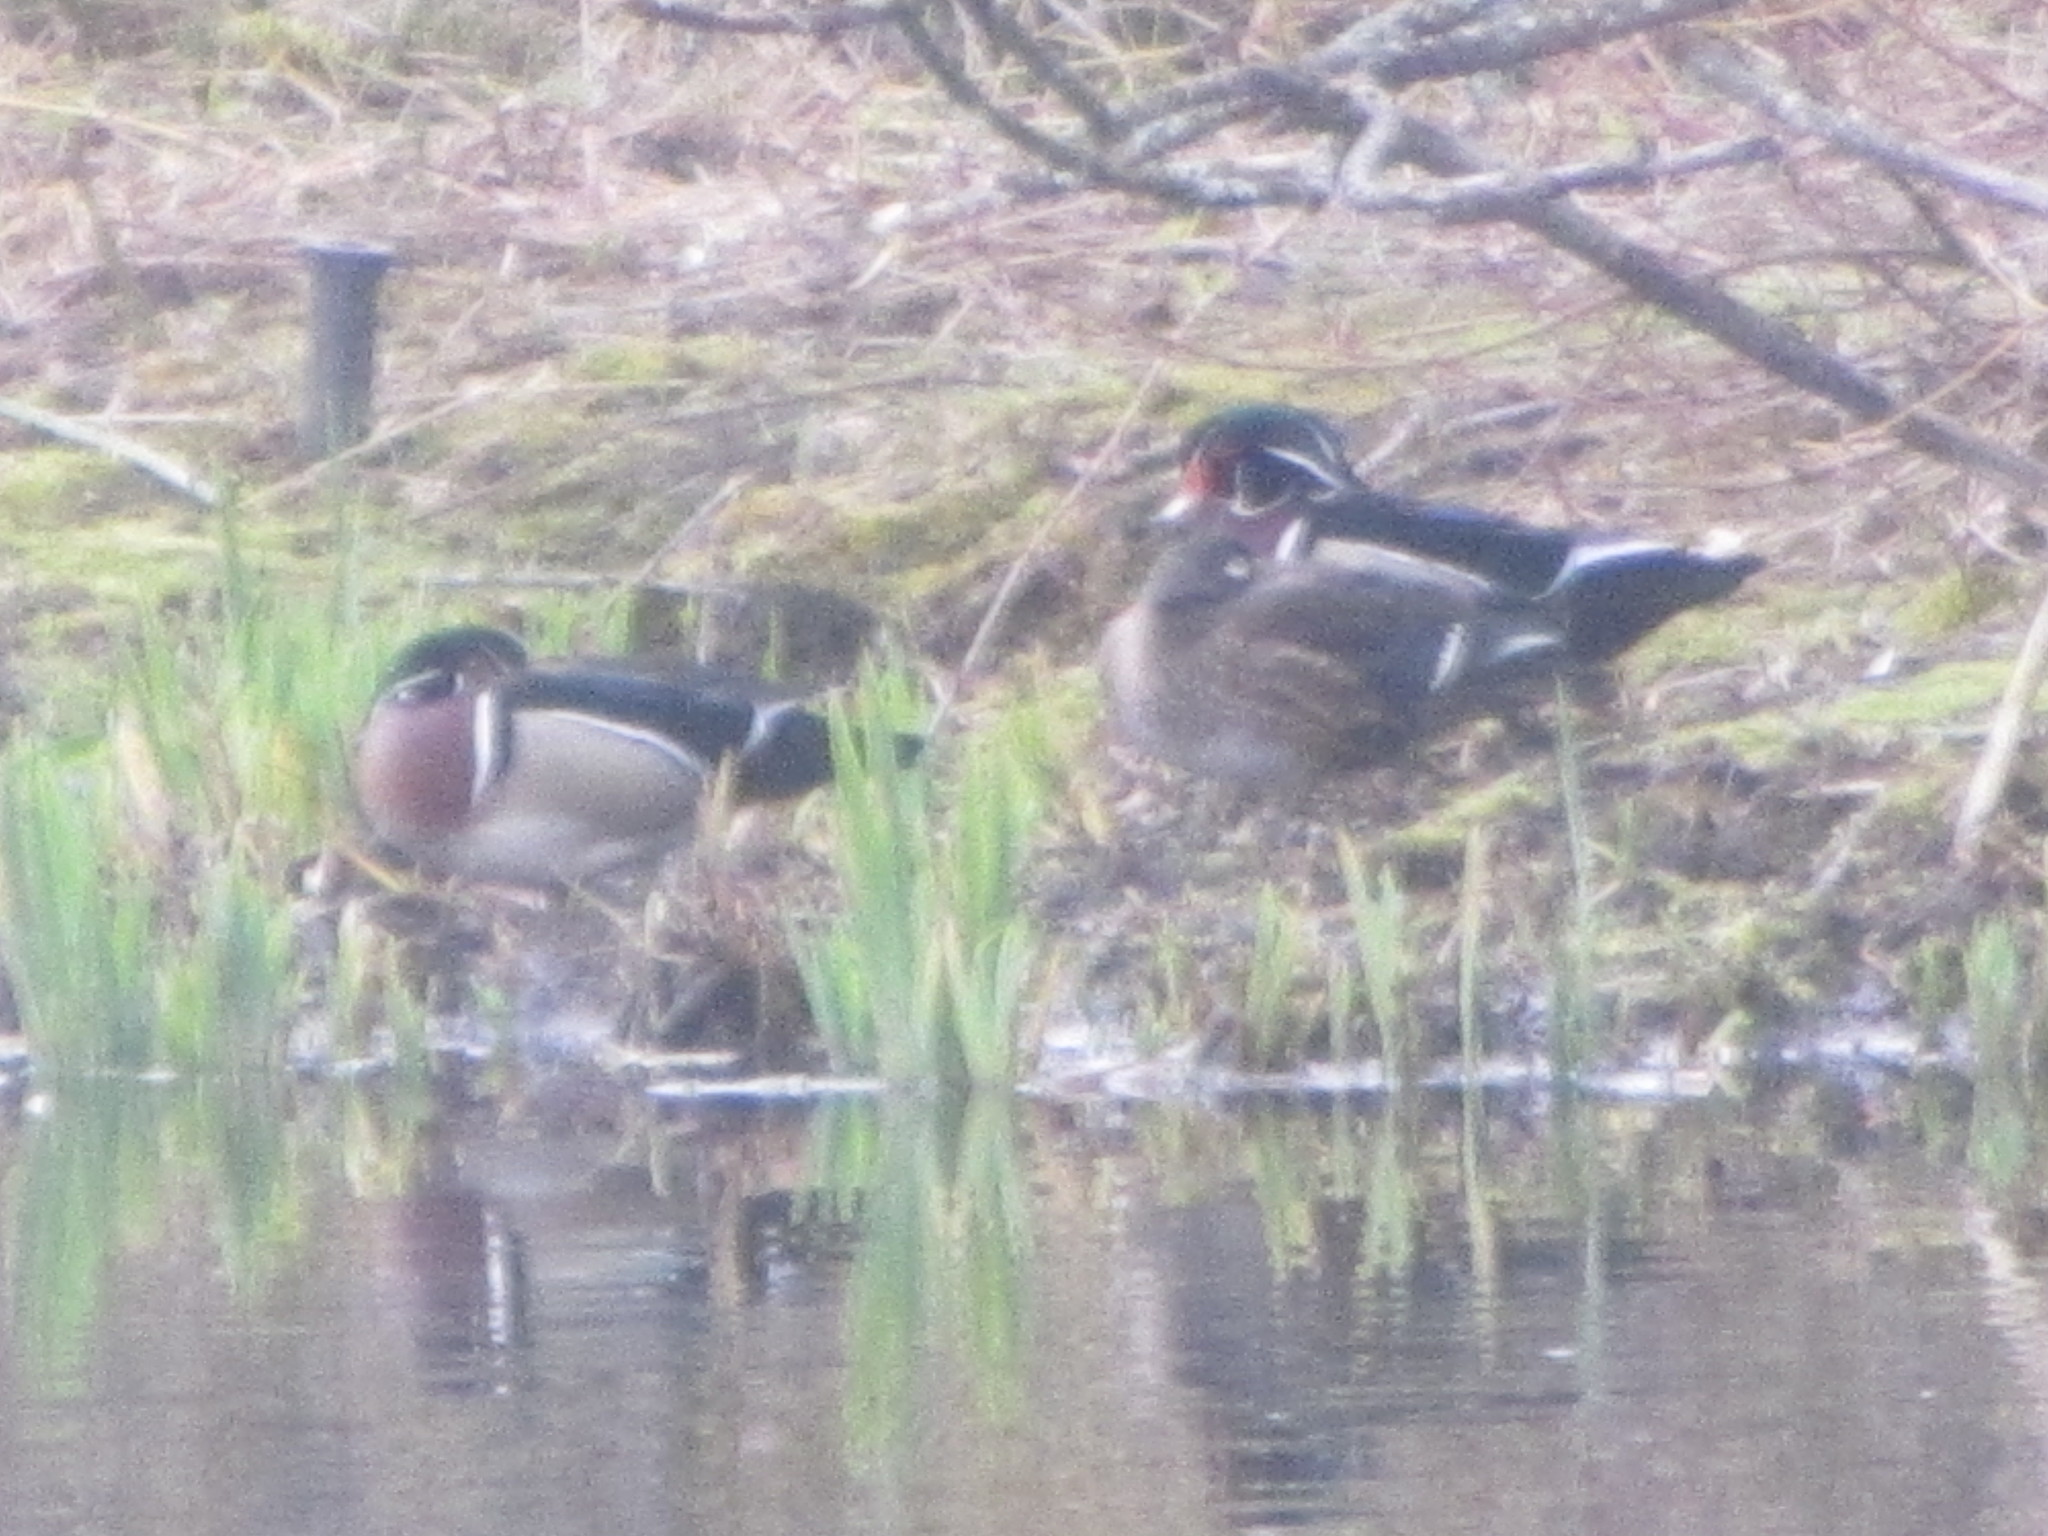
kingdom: Animalia
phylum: Chordata
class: Aves
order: Anseriformes
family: Anatidae
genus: Aix
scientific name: Aix sponsa
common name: Wood duck
